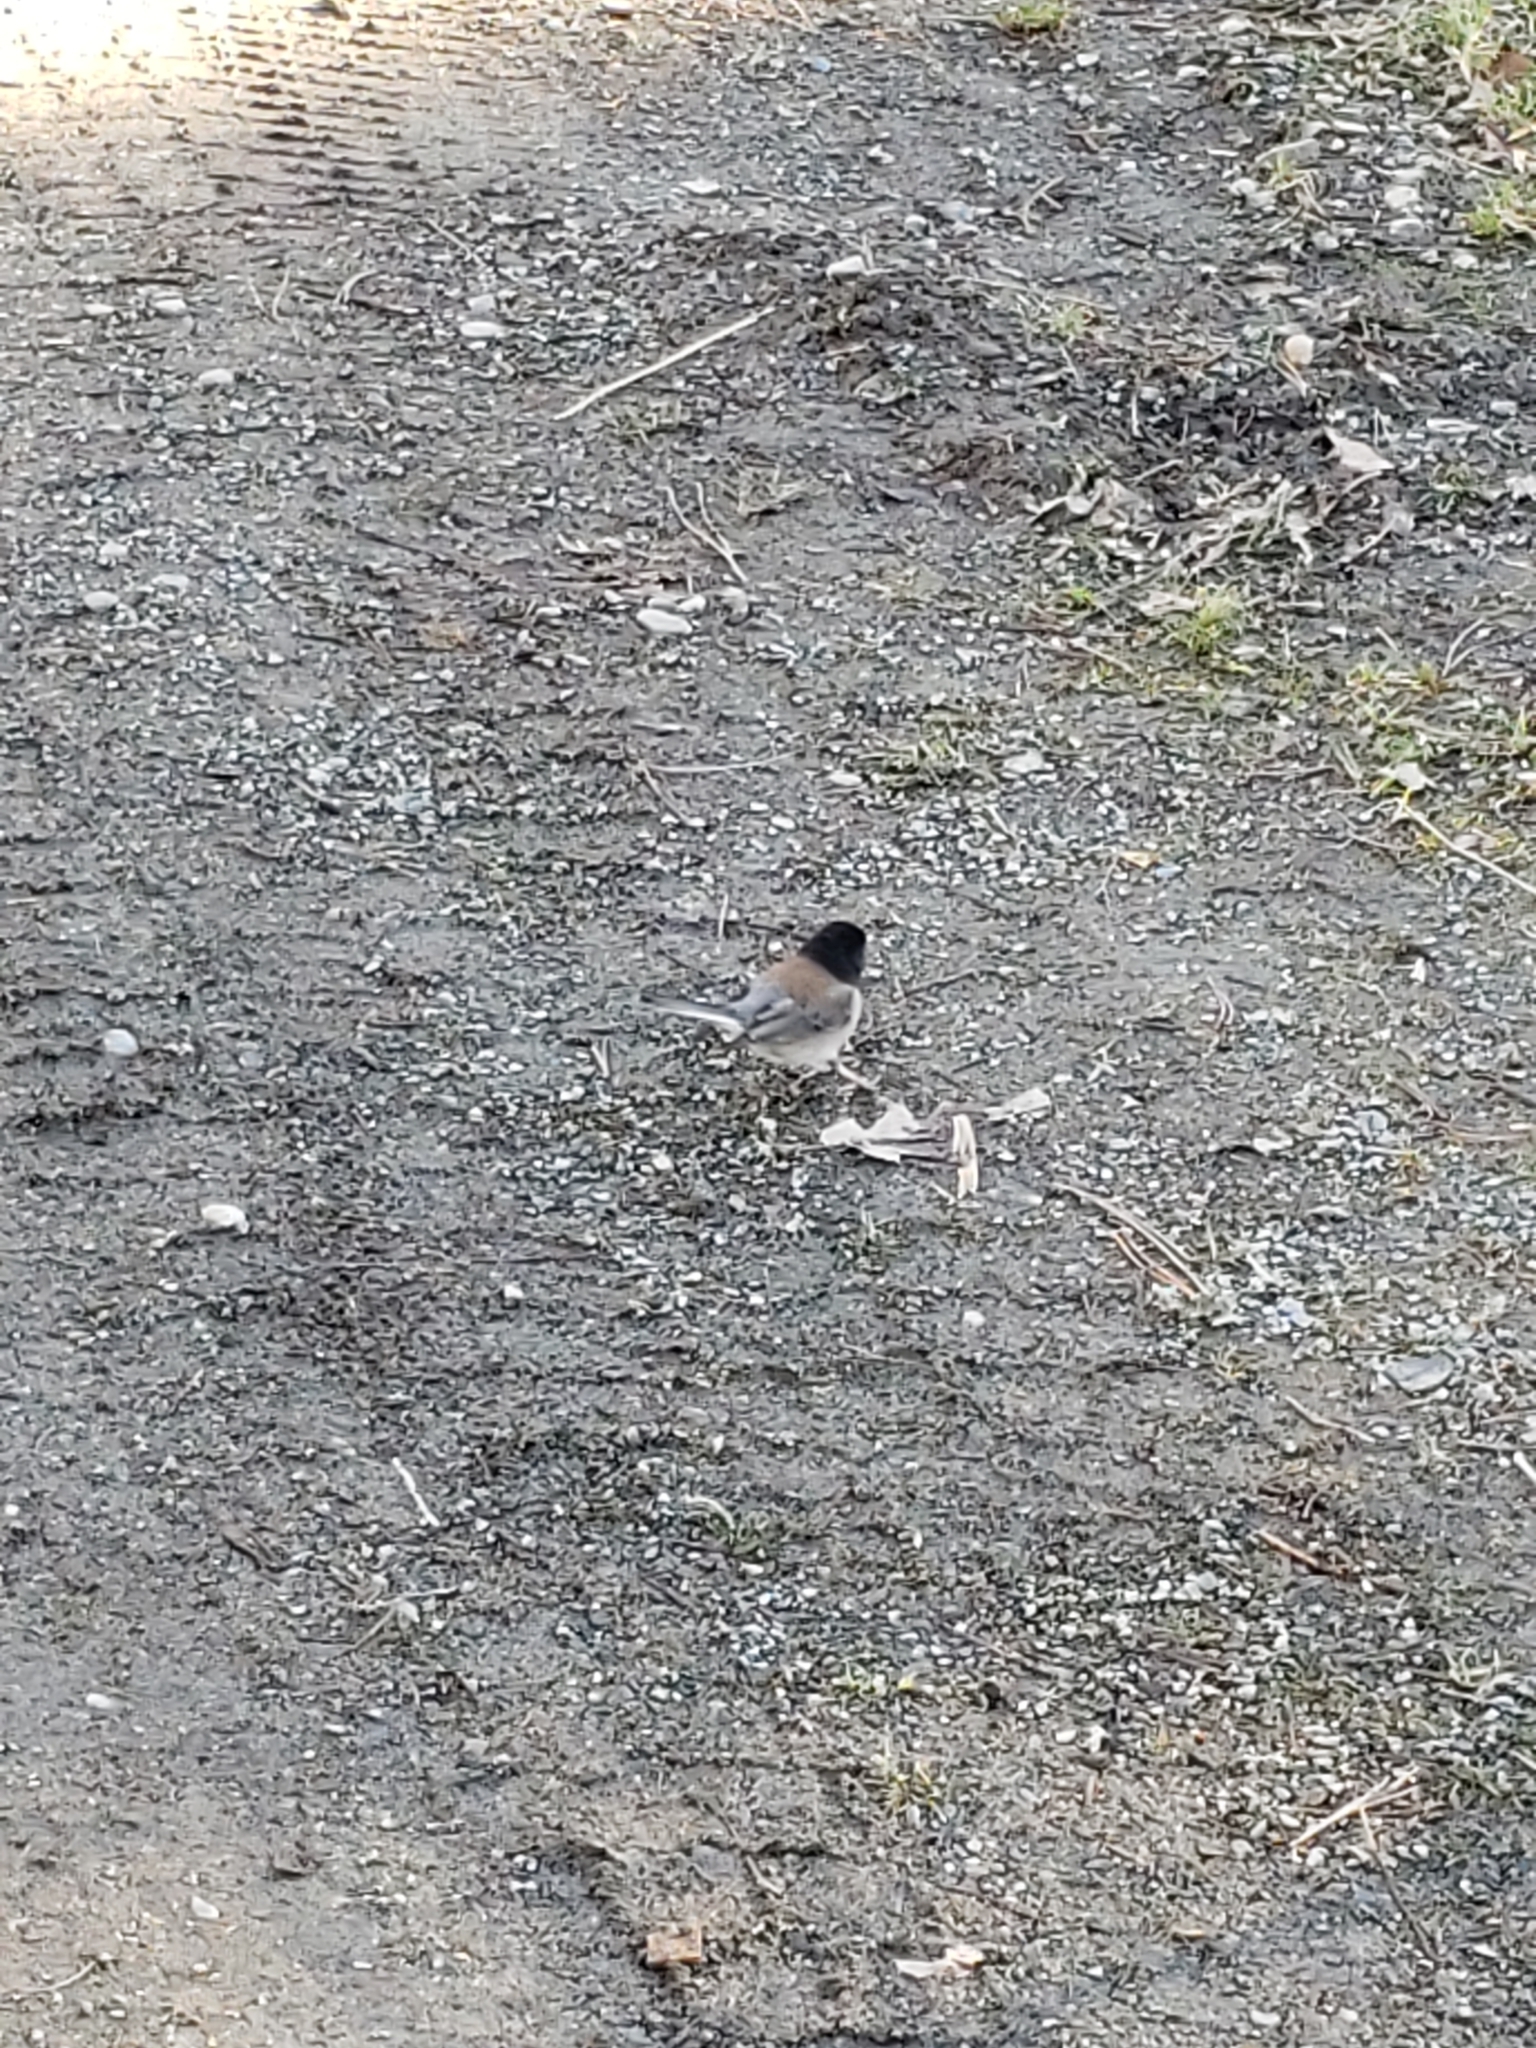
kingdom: Animalia
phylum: Chordata
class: Aves
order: Passeriformes
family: Passerellidae
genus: Junco
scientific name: Junco hyemalis
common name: Dark-eyed junco
